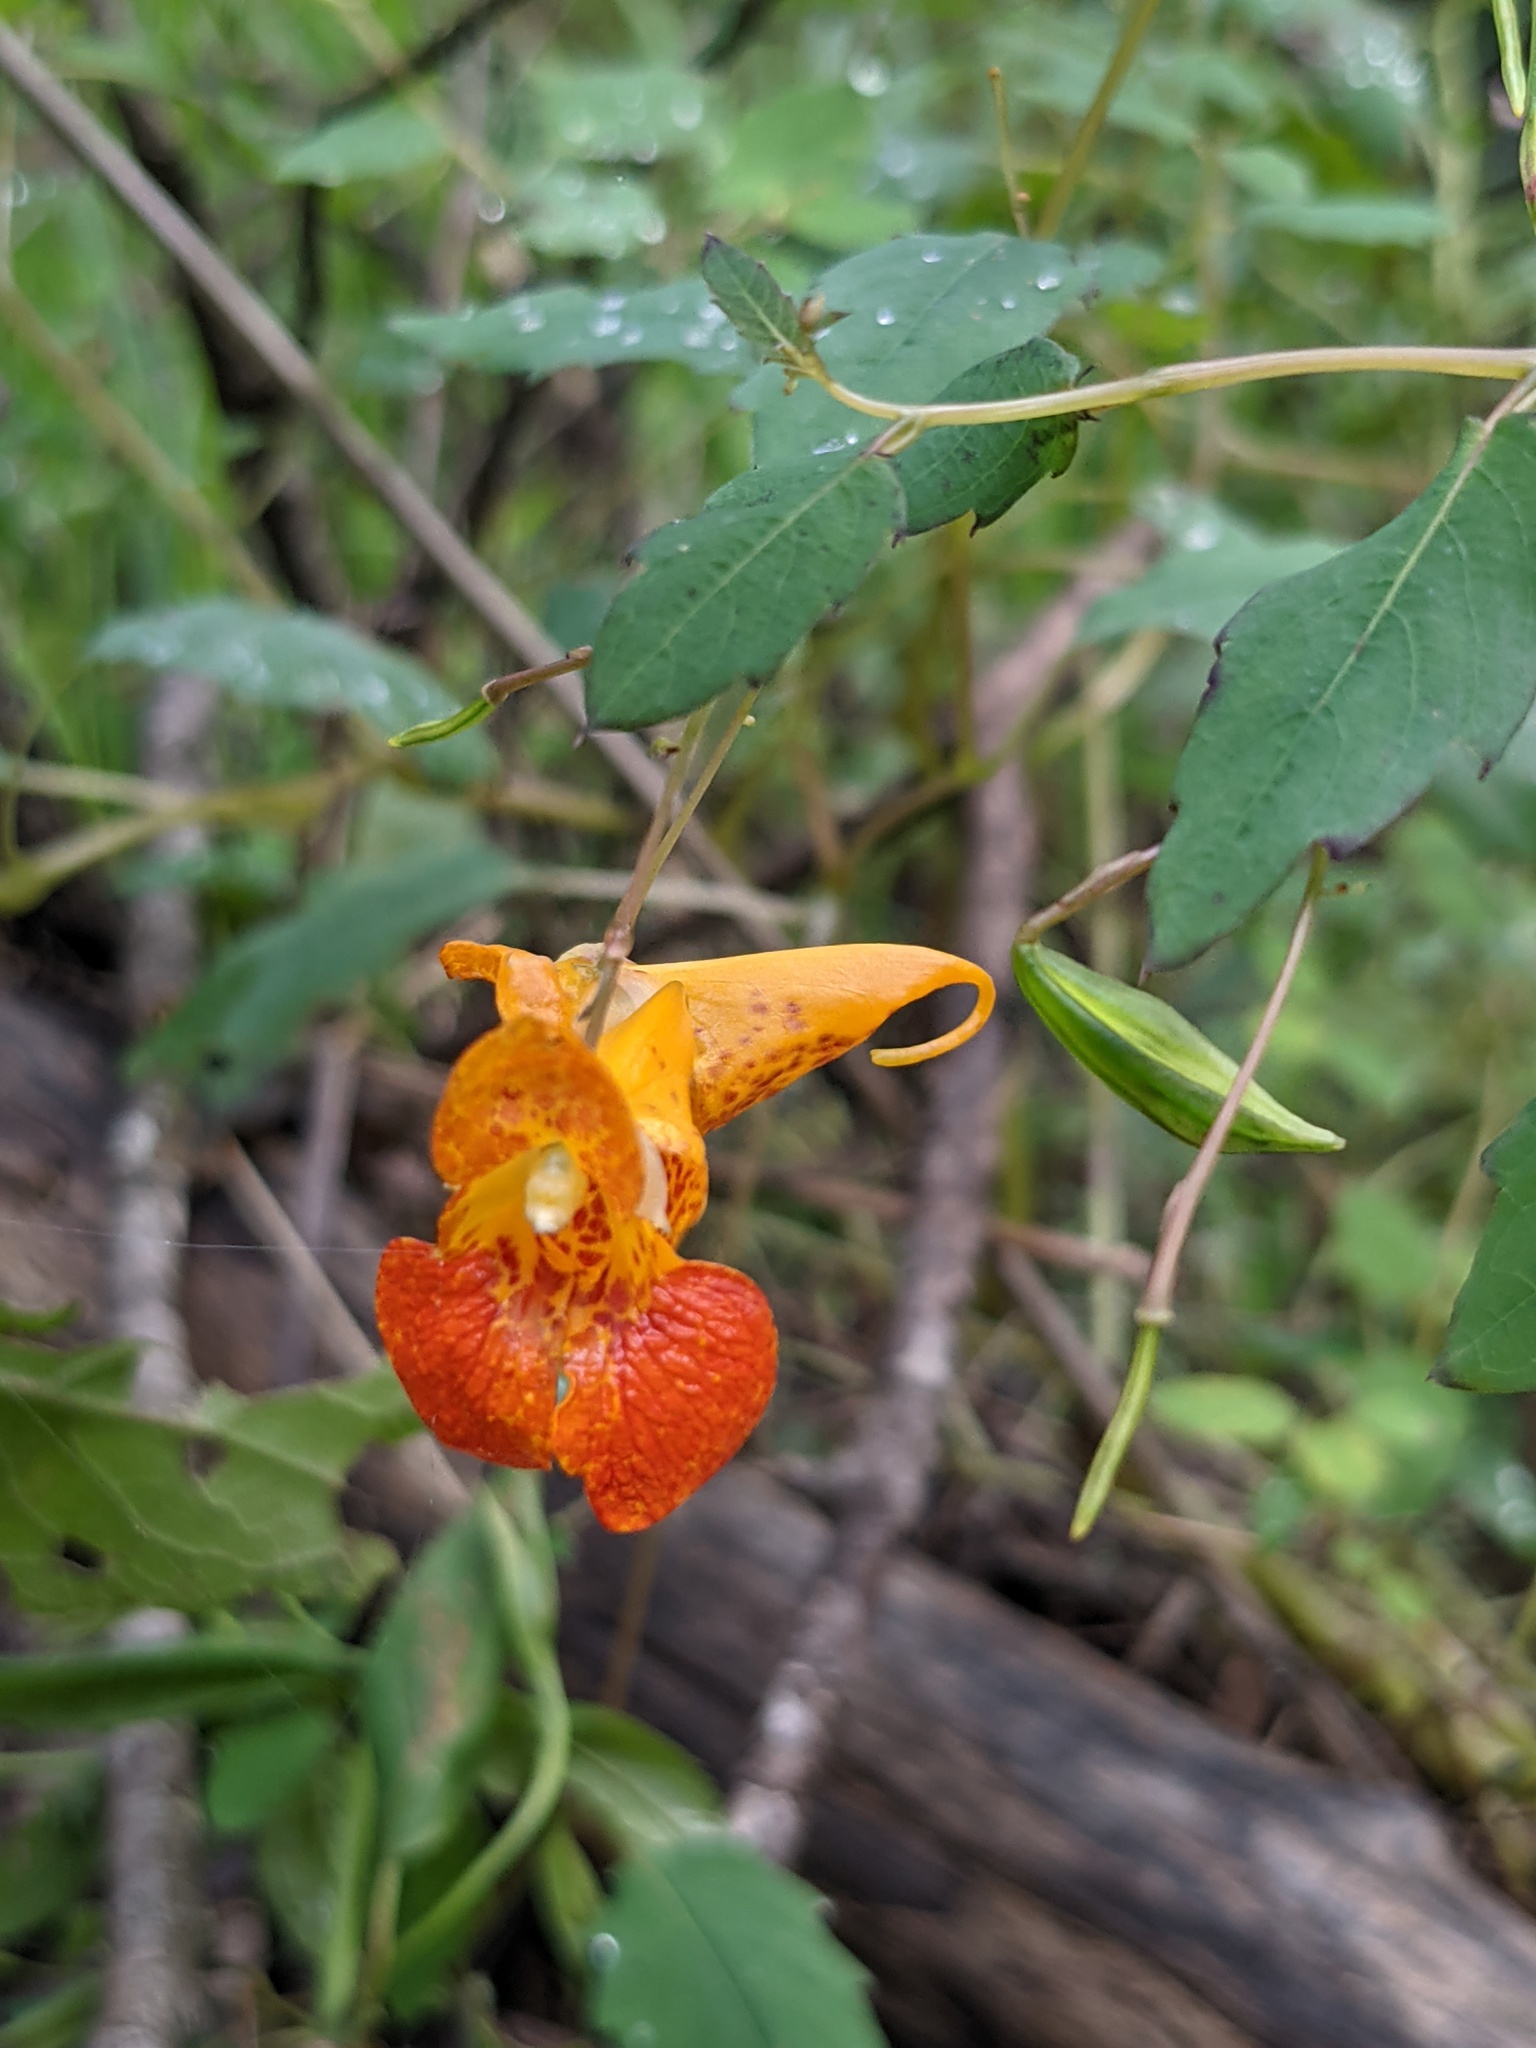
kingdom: Plantae
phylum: Tracheophyta
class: Magnoliopsida
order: Ericales
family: Balsaminaceae
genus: Impatiens
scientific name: Impatiens capensis
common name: Orange balsam
